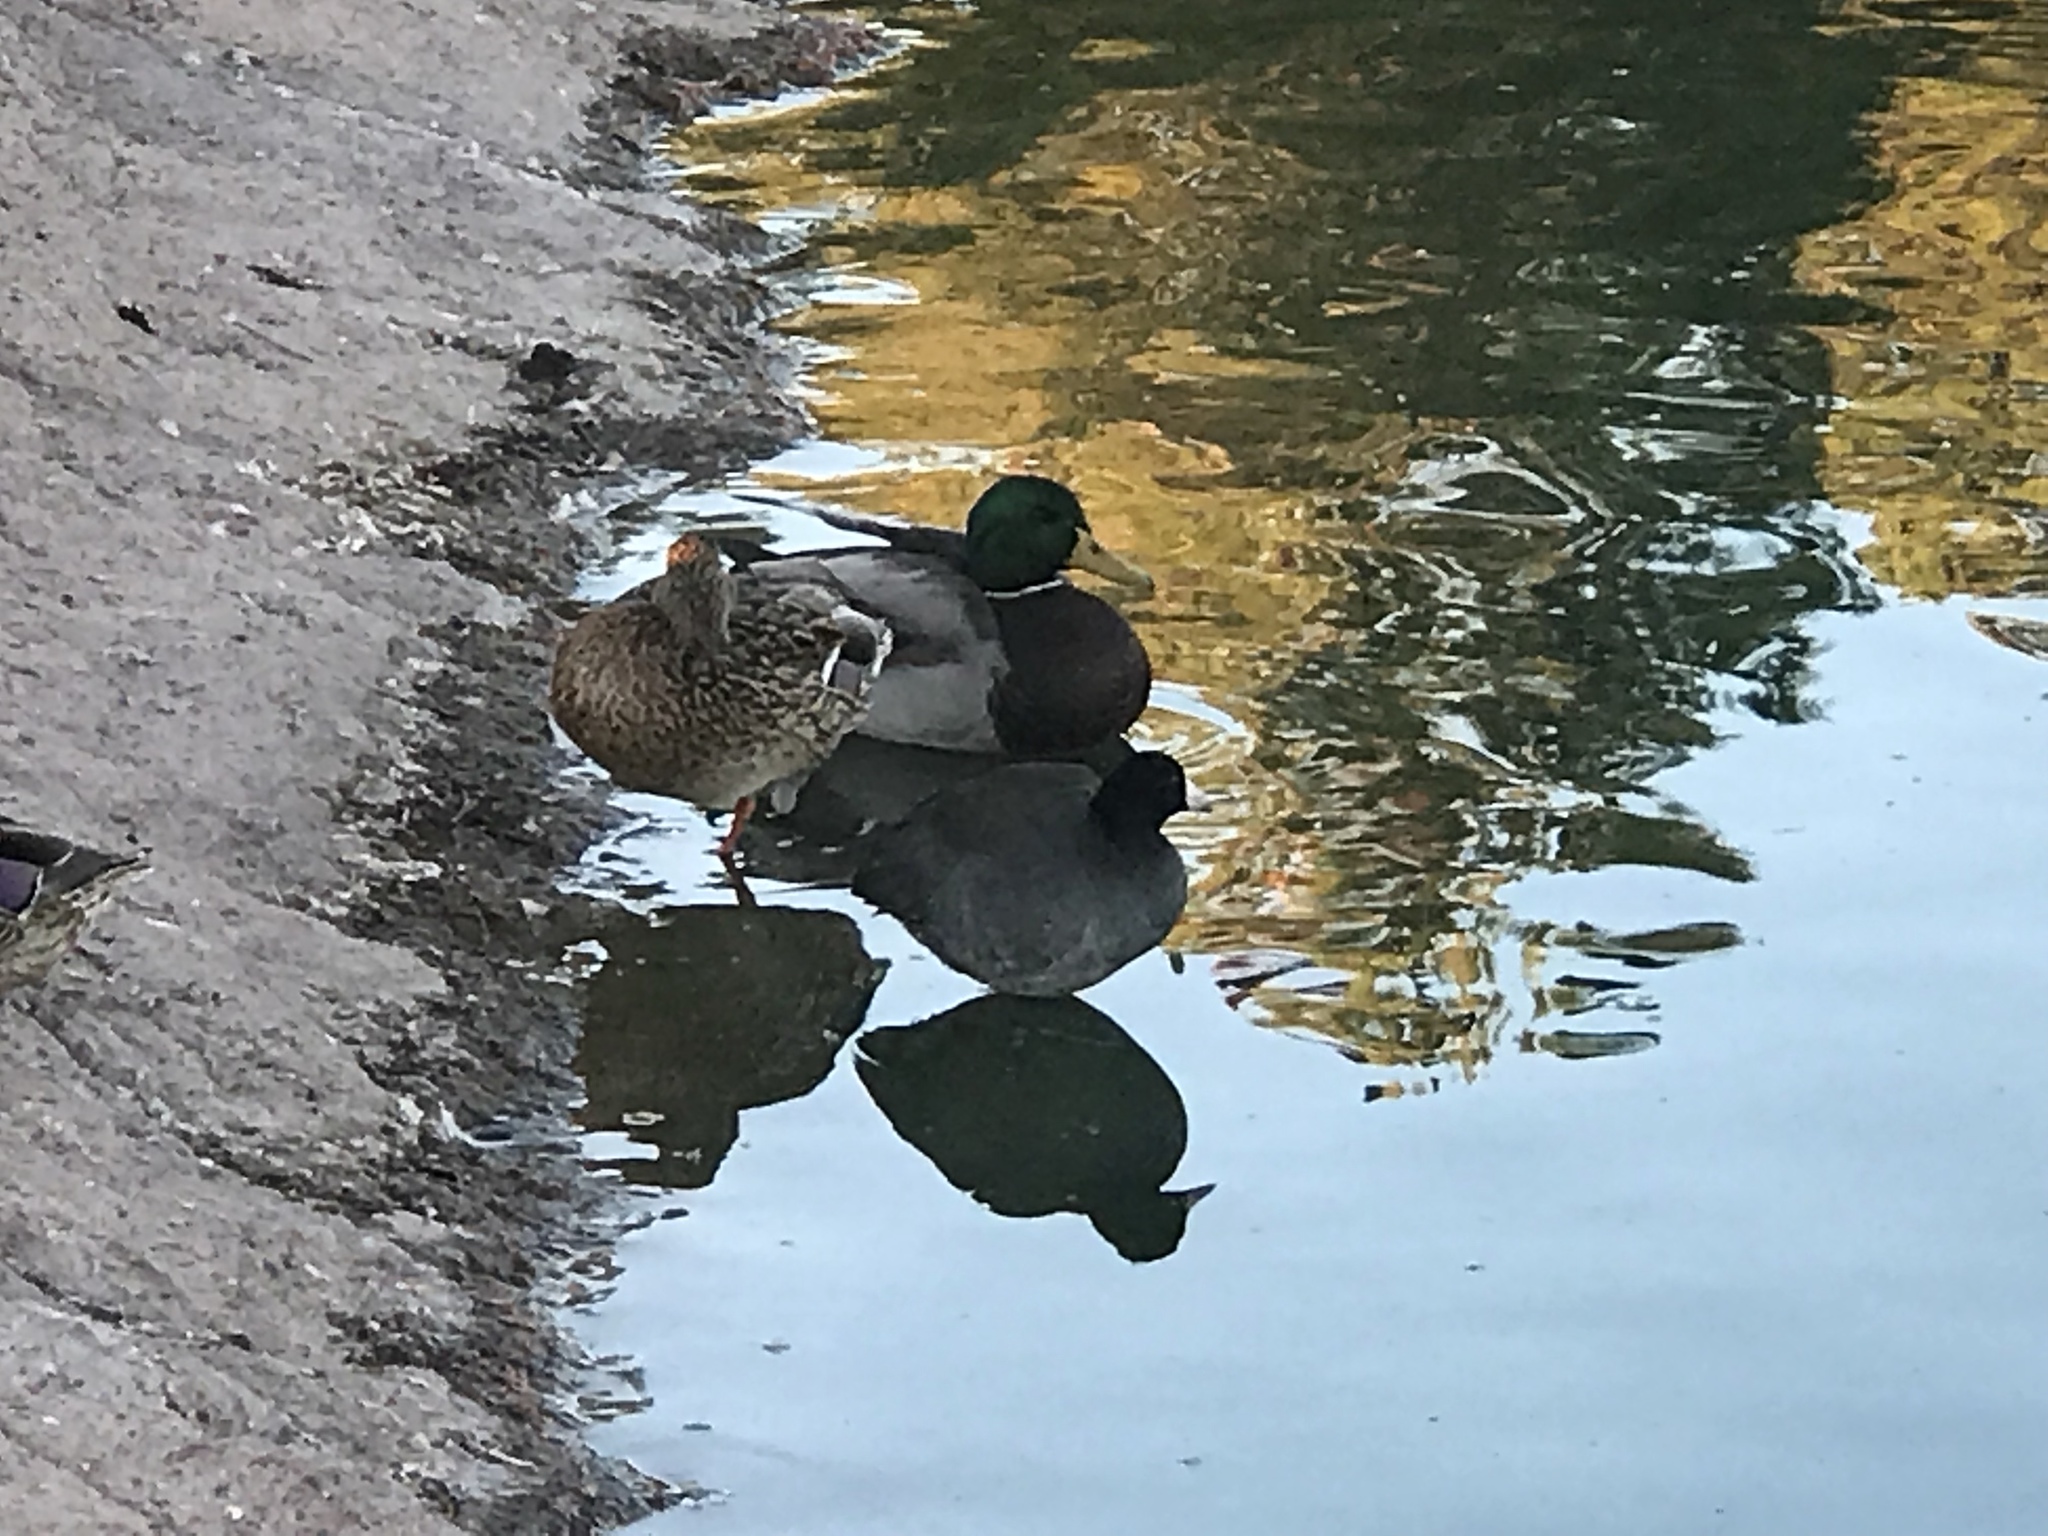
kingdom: Animalia
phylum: Chordata
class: Aves
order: Gruiformes
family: Rallidae
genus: Fulica
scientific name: Fulica americana
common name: American coot
